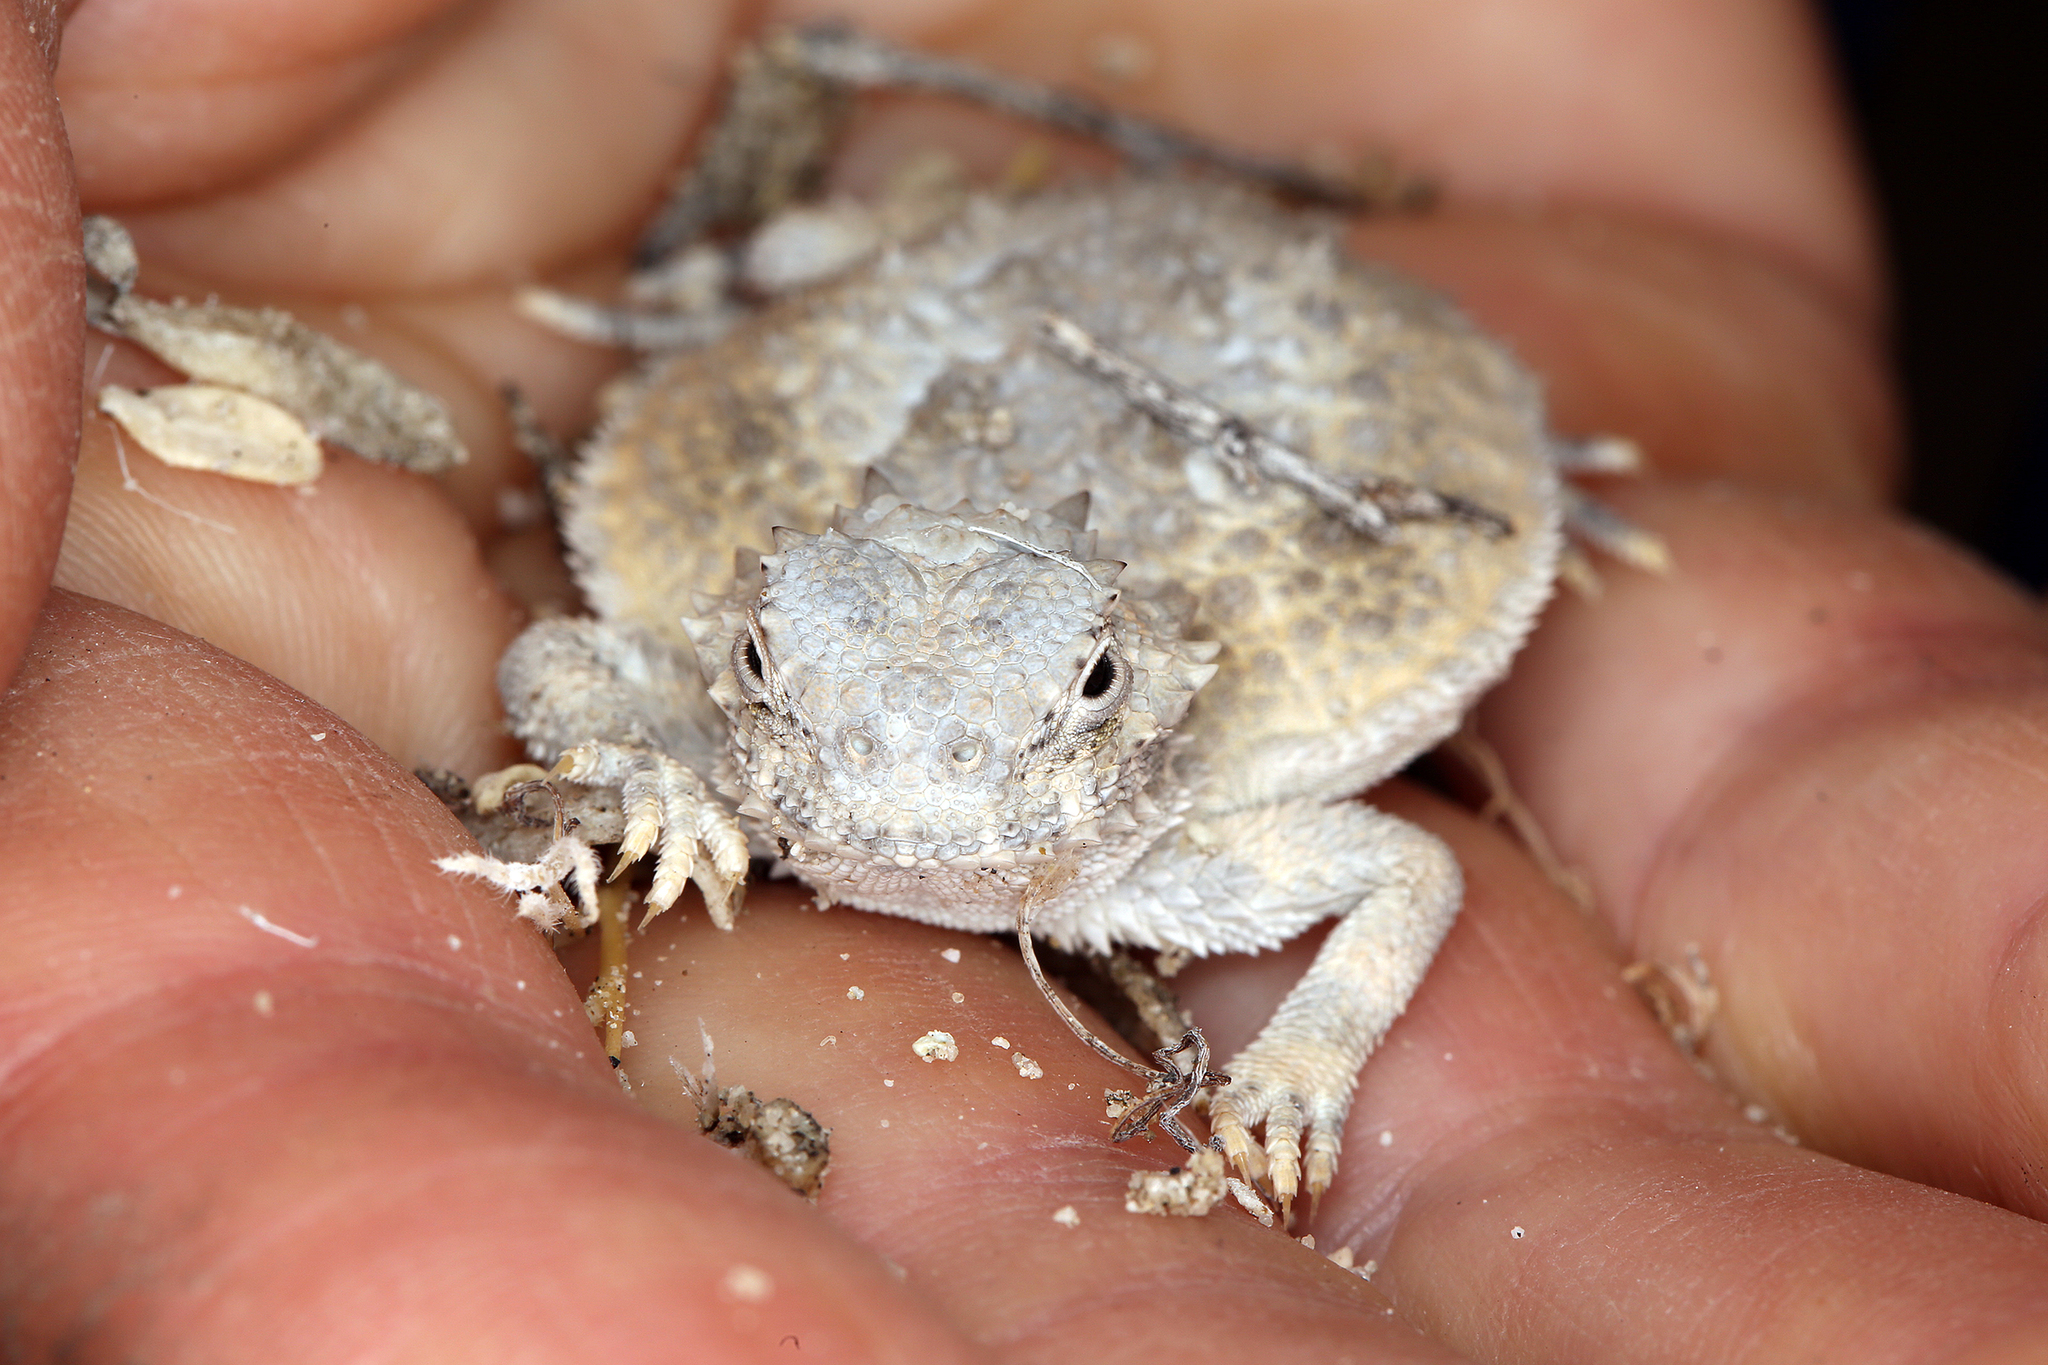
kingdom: Animalia
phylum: Chordata
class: Squamata
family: Phrynosomatidae
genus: Phrynosoma
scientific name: Phrynosoma platyrhinos
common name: Desert horned lizard
